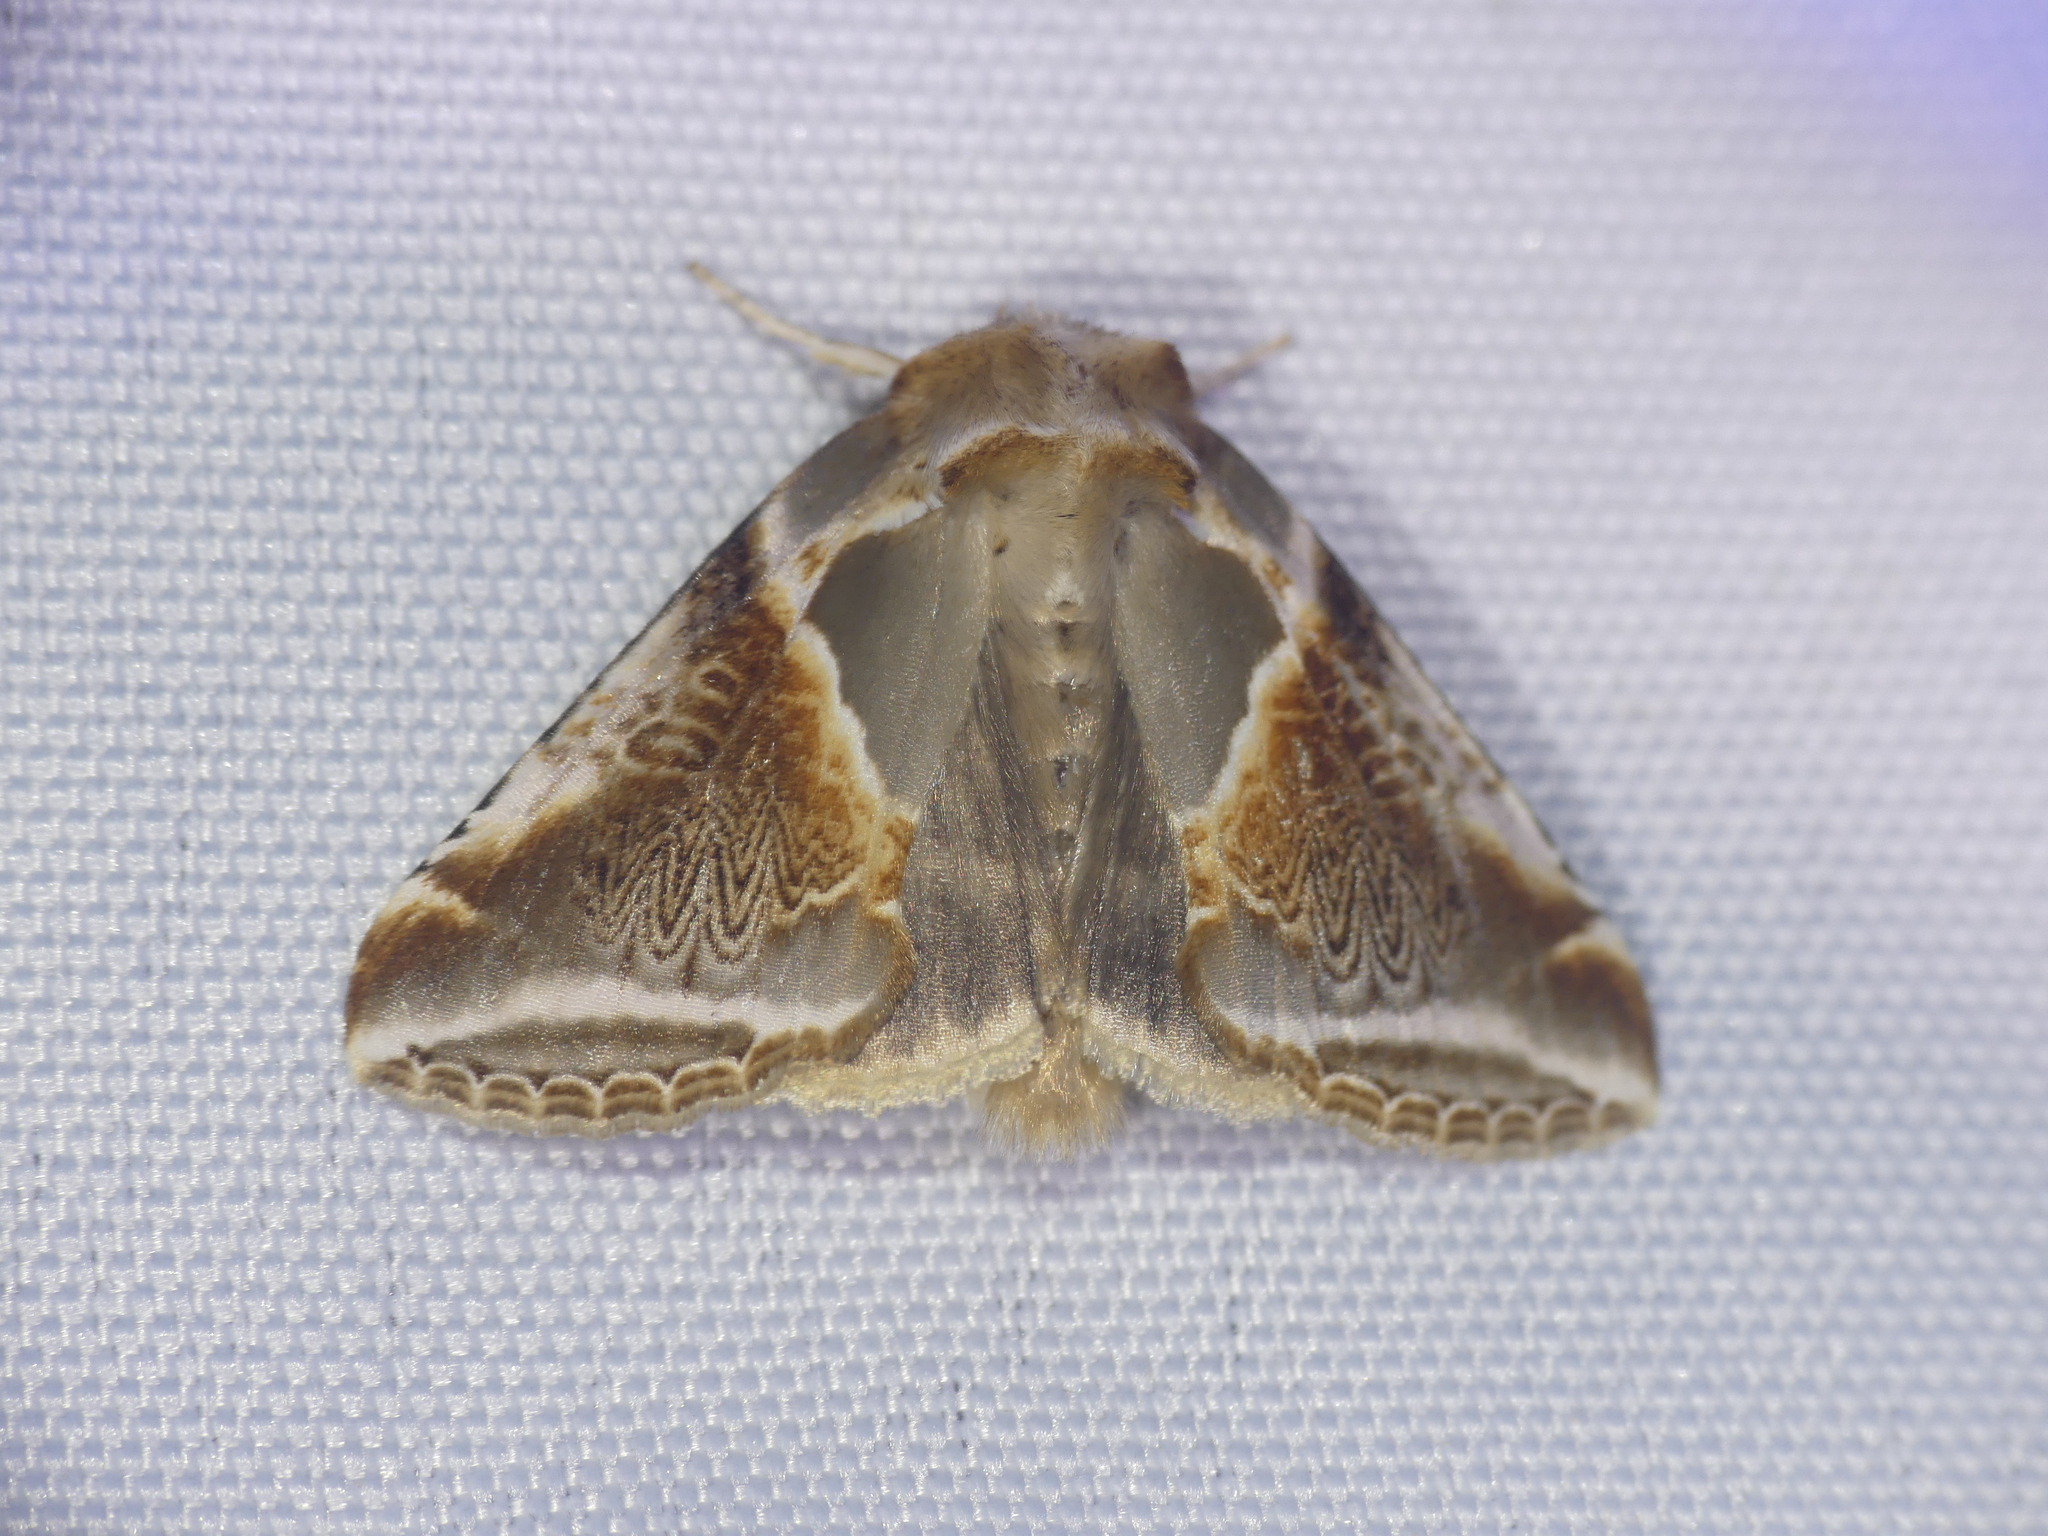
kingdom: Animalia
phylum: Arthropoda
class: Insecta
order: Lepidoptera
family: Drepanidae
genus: Habrosyne
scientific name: Habrosyne pyritoides
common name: Buff arches
